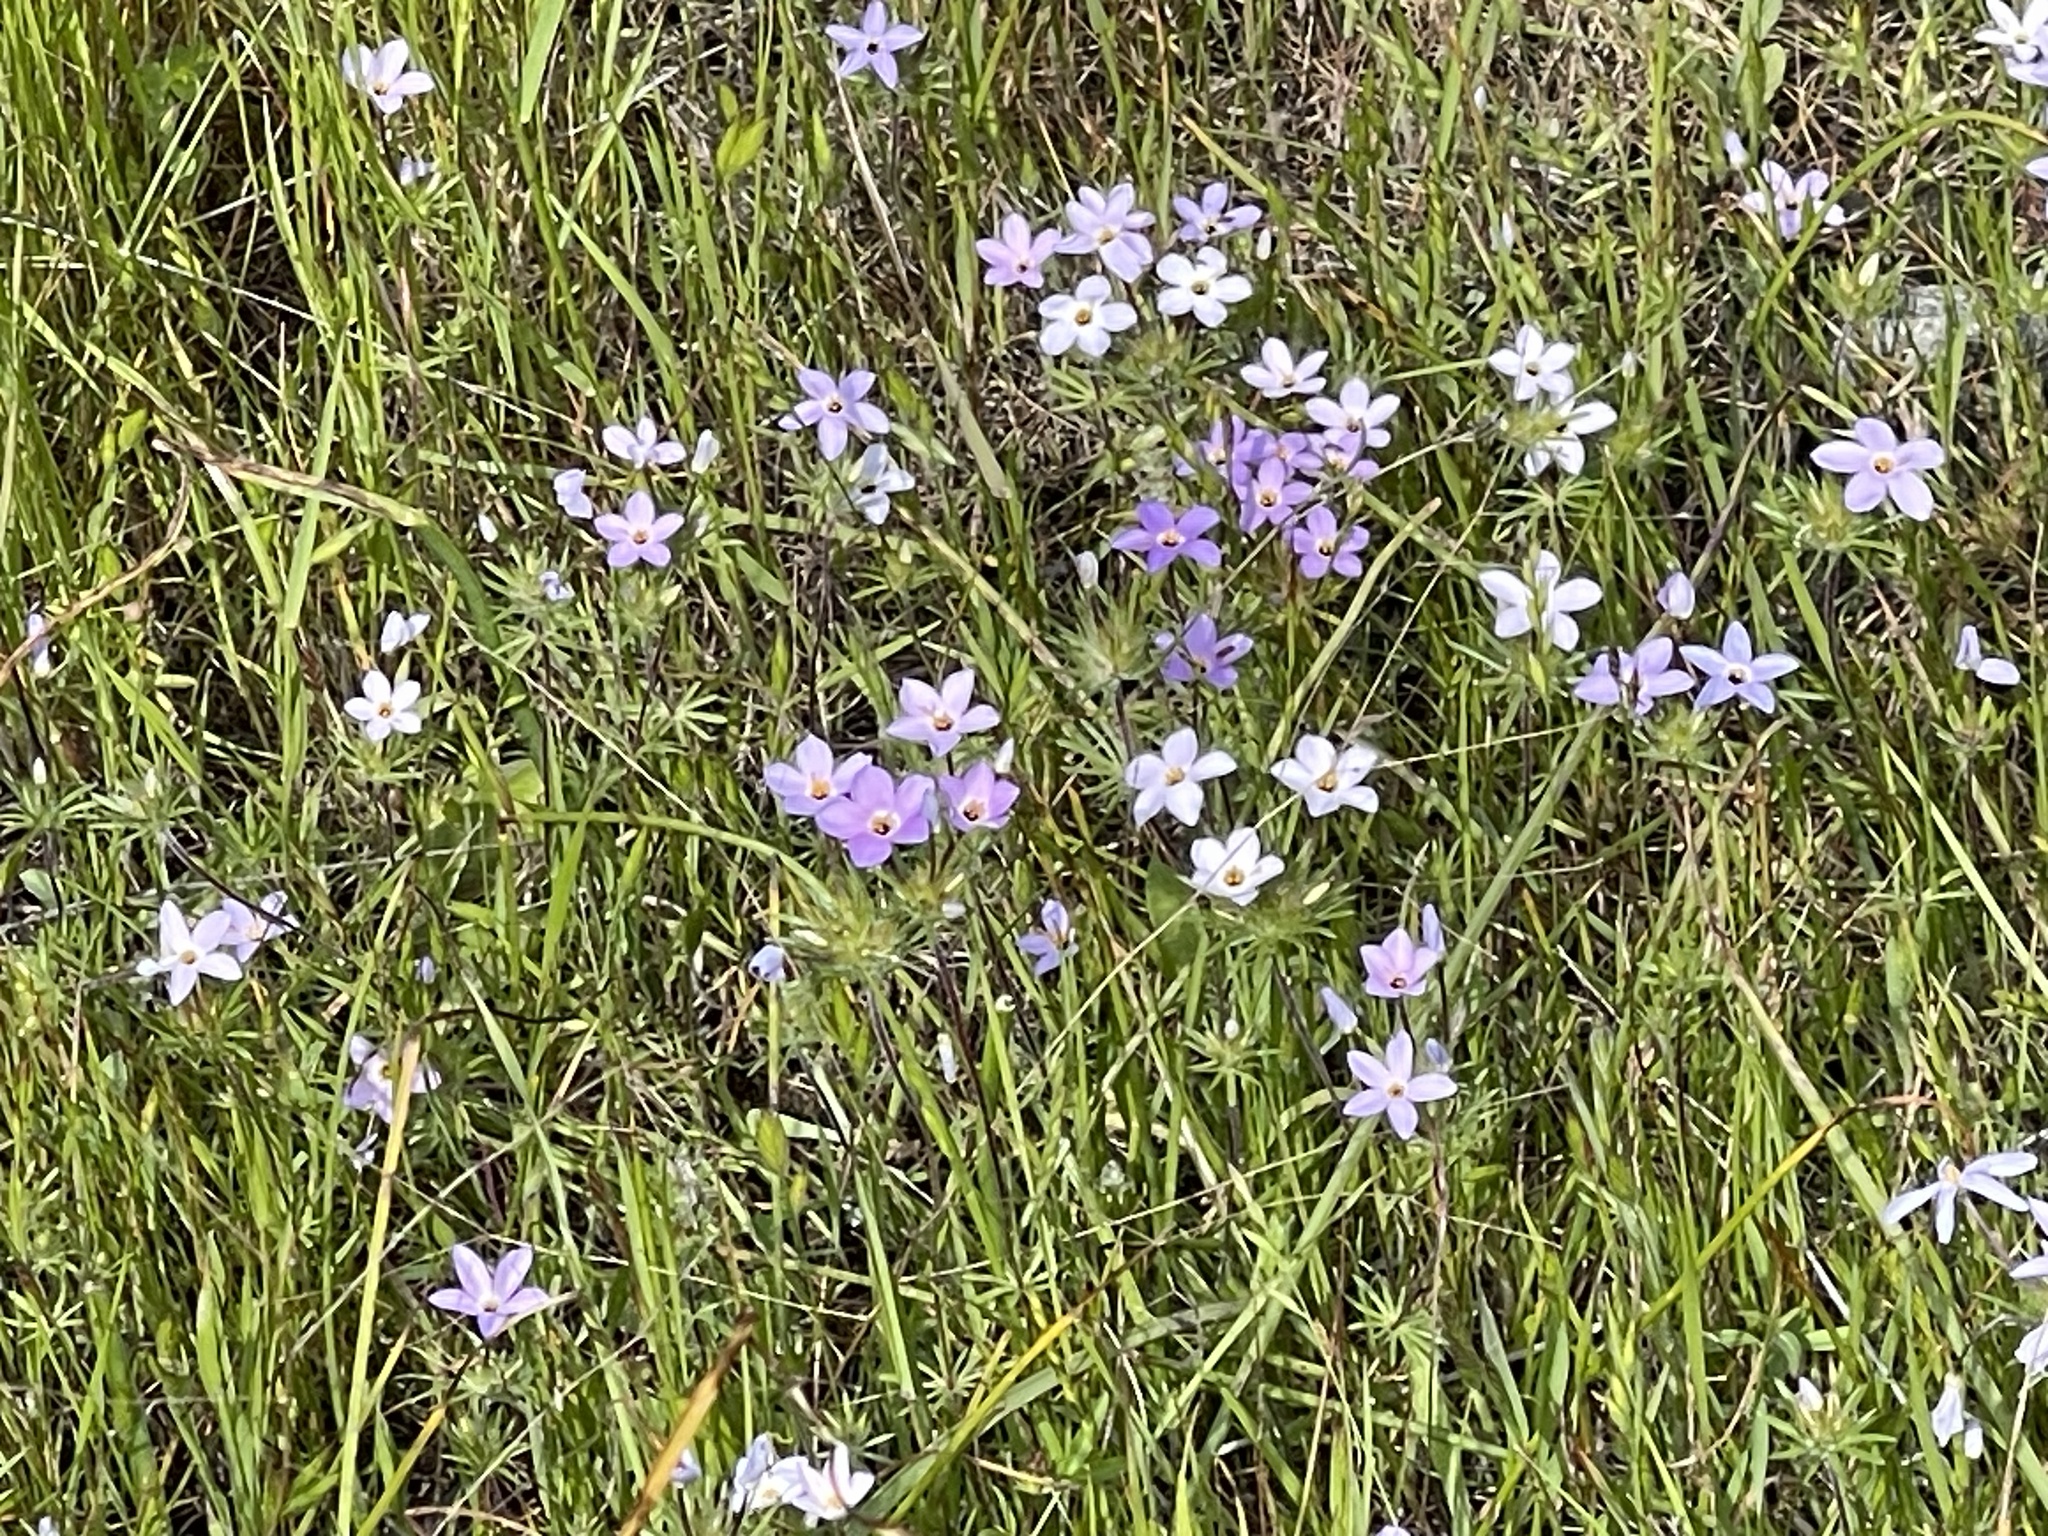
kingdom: Plantae
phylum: Tracheophyta
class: Magnoliopsida
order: Ericales
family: Polemoniaceae
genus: Leptosiphon
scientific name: Leptosiphon androsaceus
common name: False babystars
